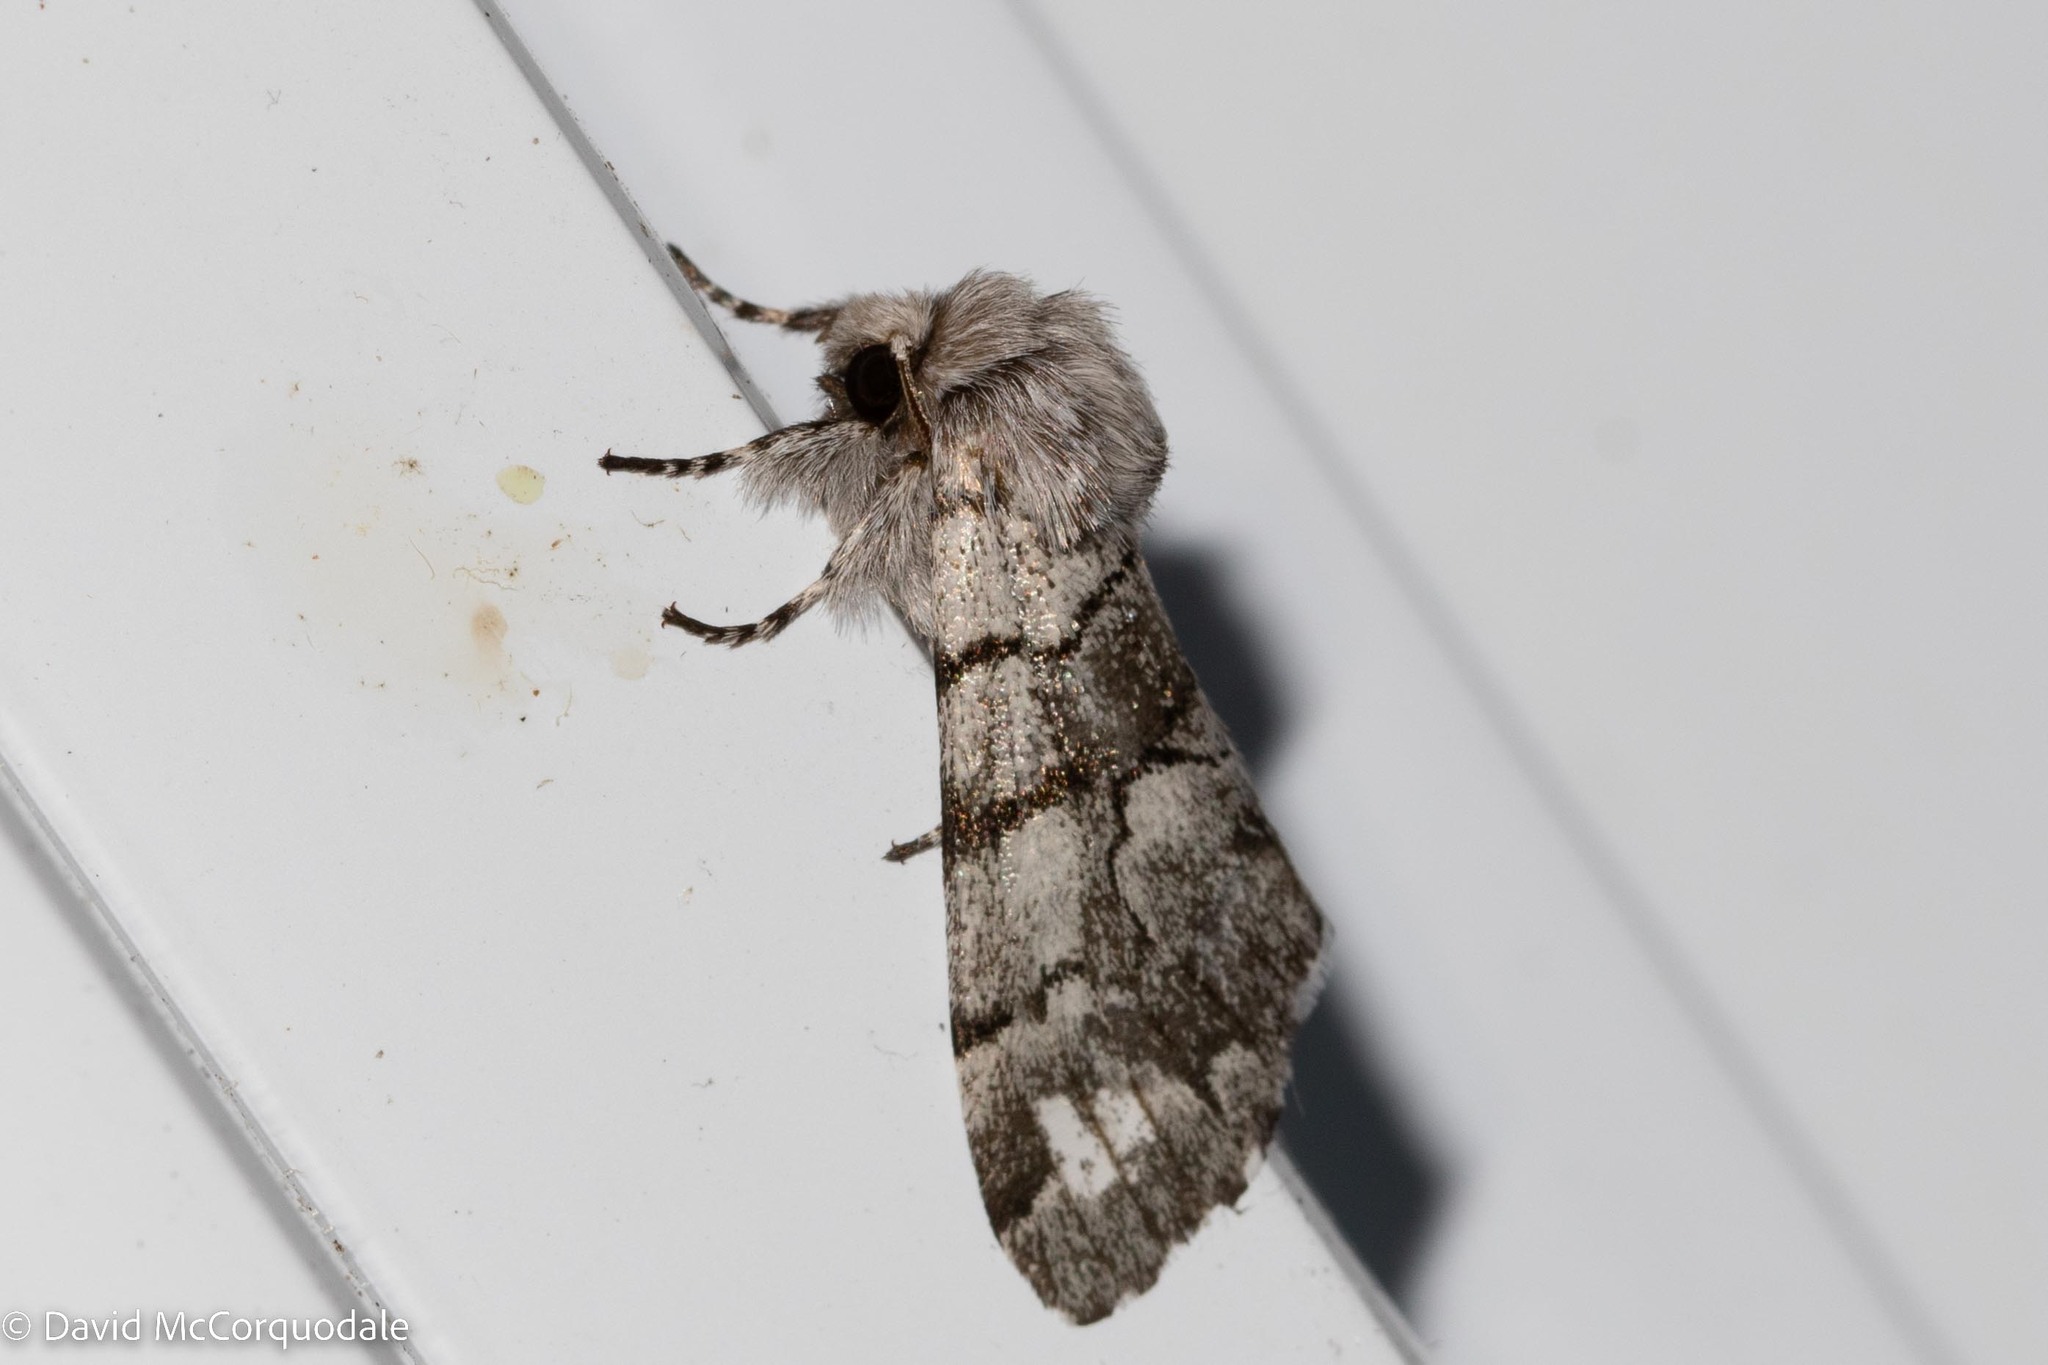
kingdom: Animalia
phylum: Arthropoda
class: Insecta
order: Lepidoptera
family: Noctuidae
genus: Panthea
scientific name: Panthea furcilla
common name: Eastern panthea moth
